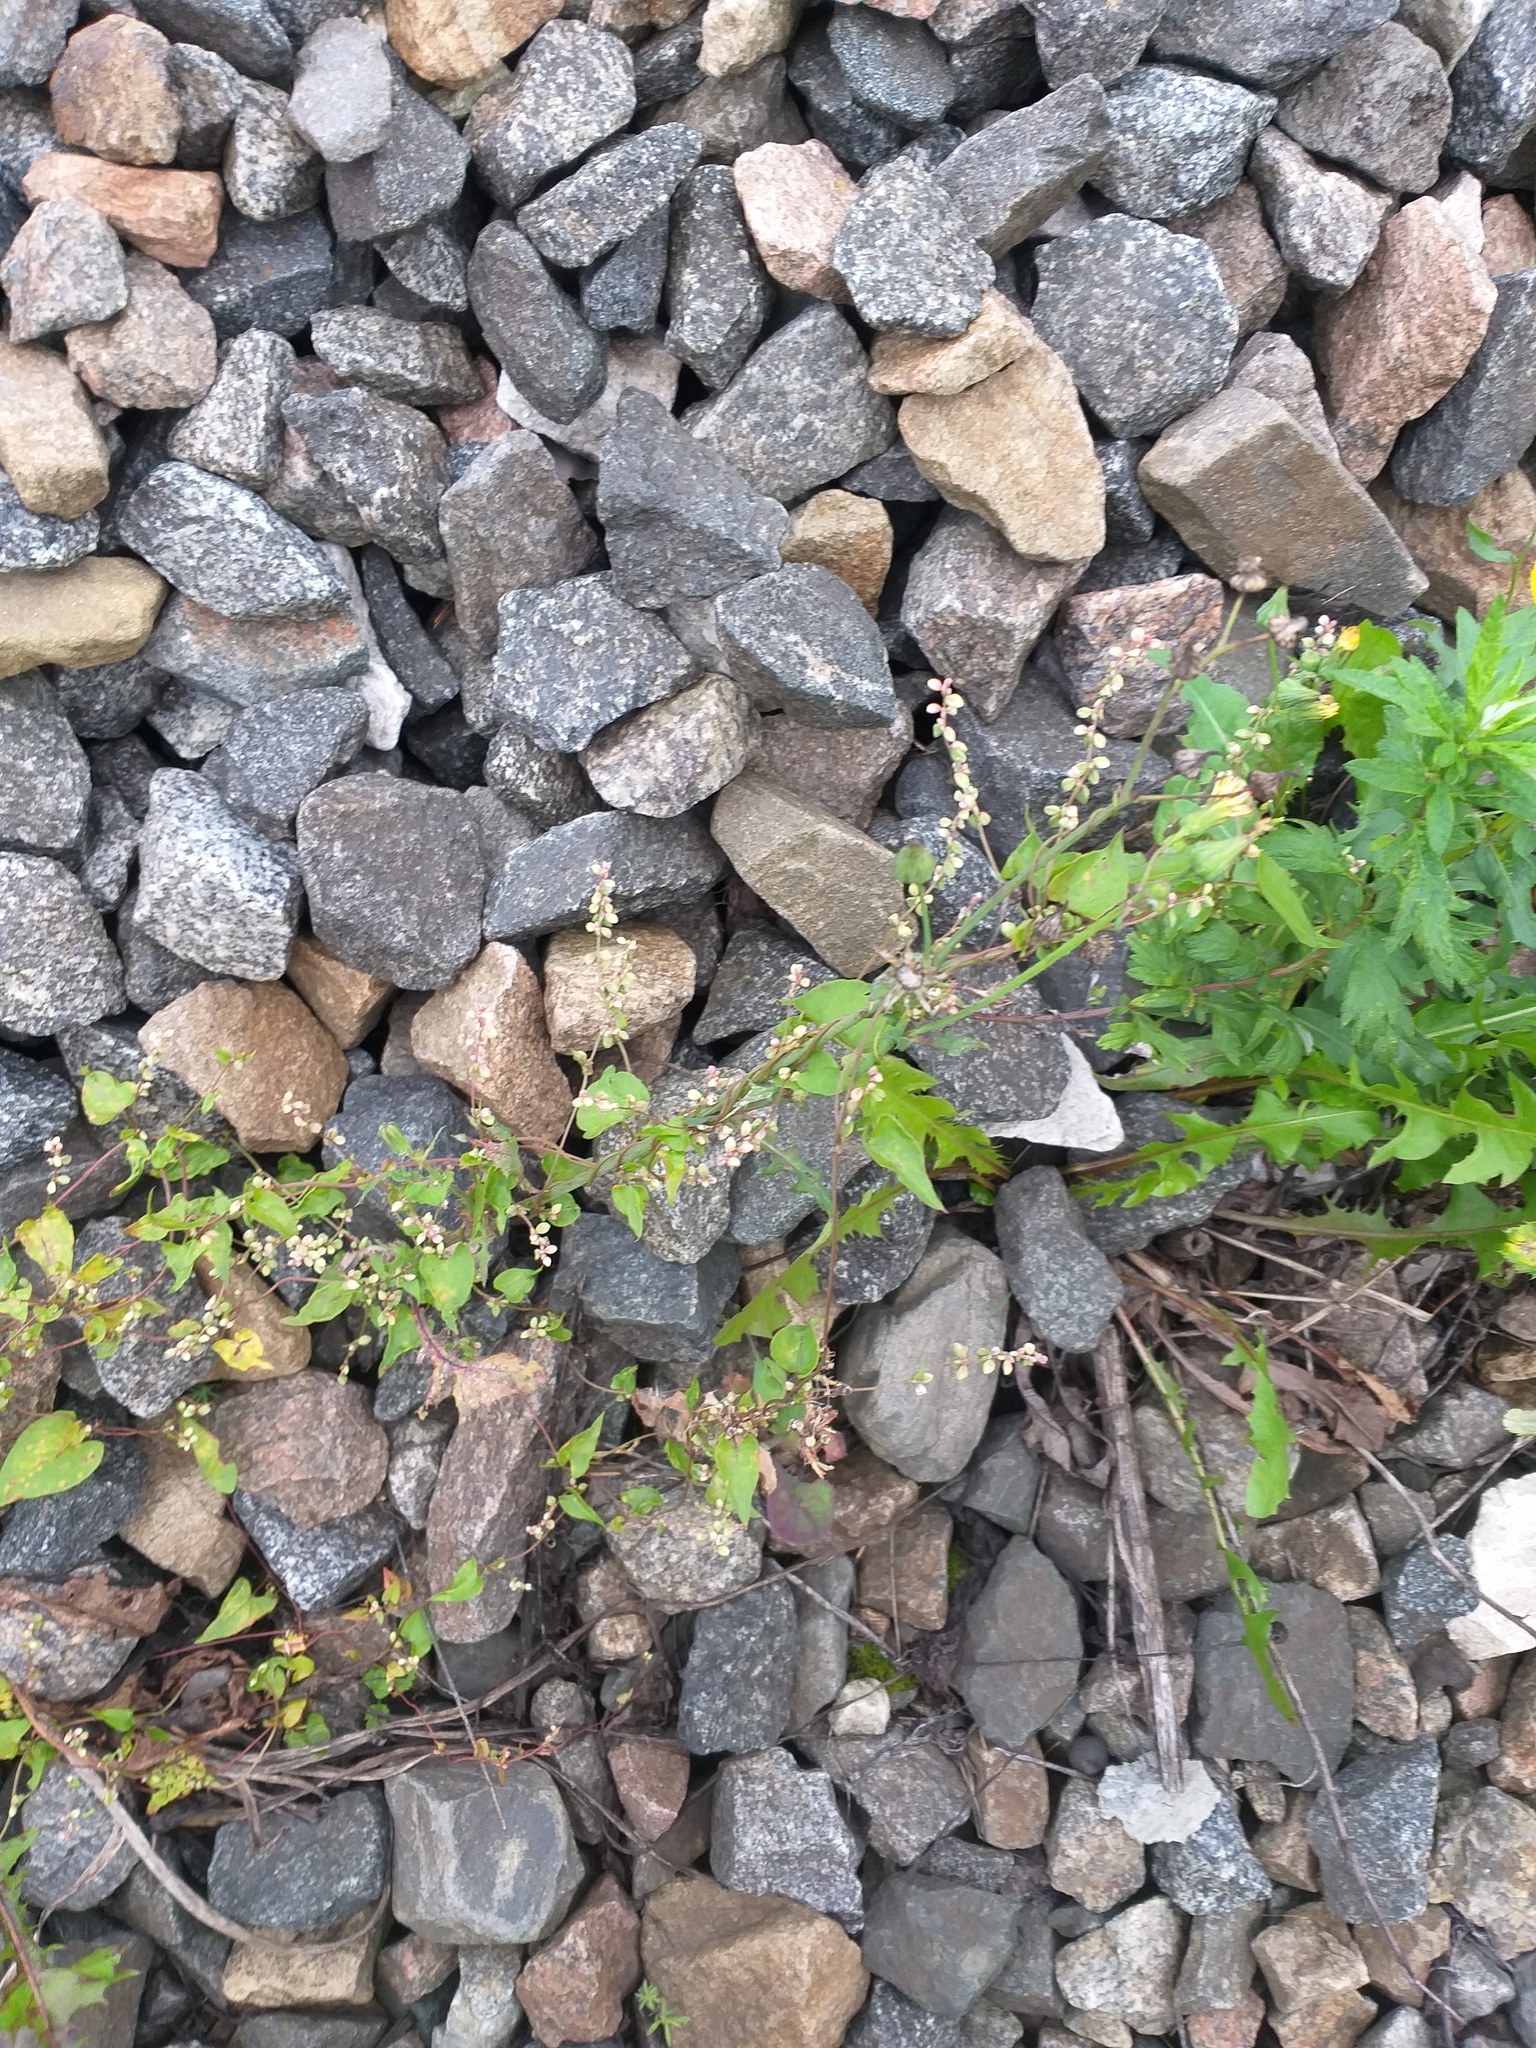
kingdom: Plantae
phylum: Tracheophyta
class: Magnoliopsida
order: Caryophyllales
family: Polygonaceae
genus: Fallopia
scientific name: Fallopia convolvulus
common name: Black bindweed
